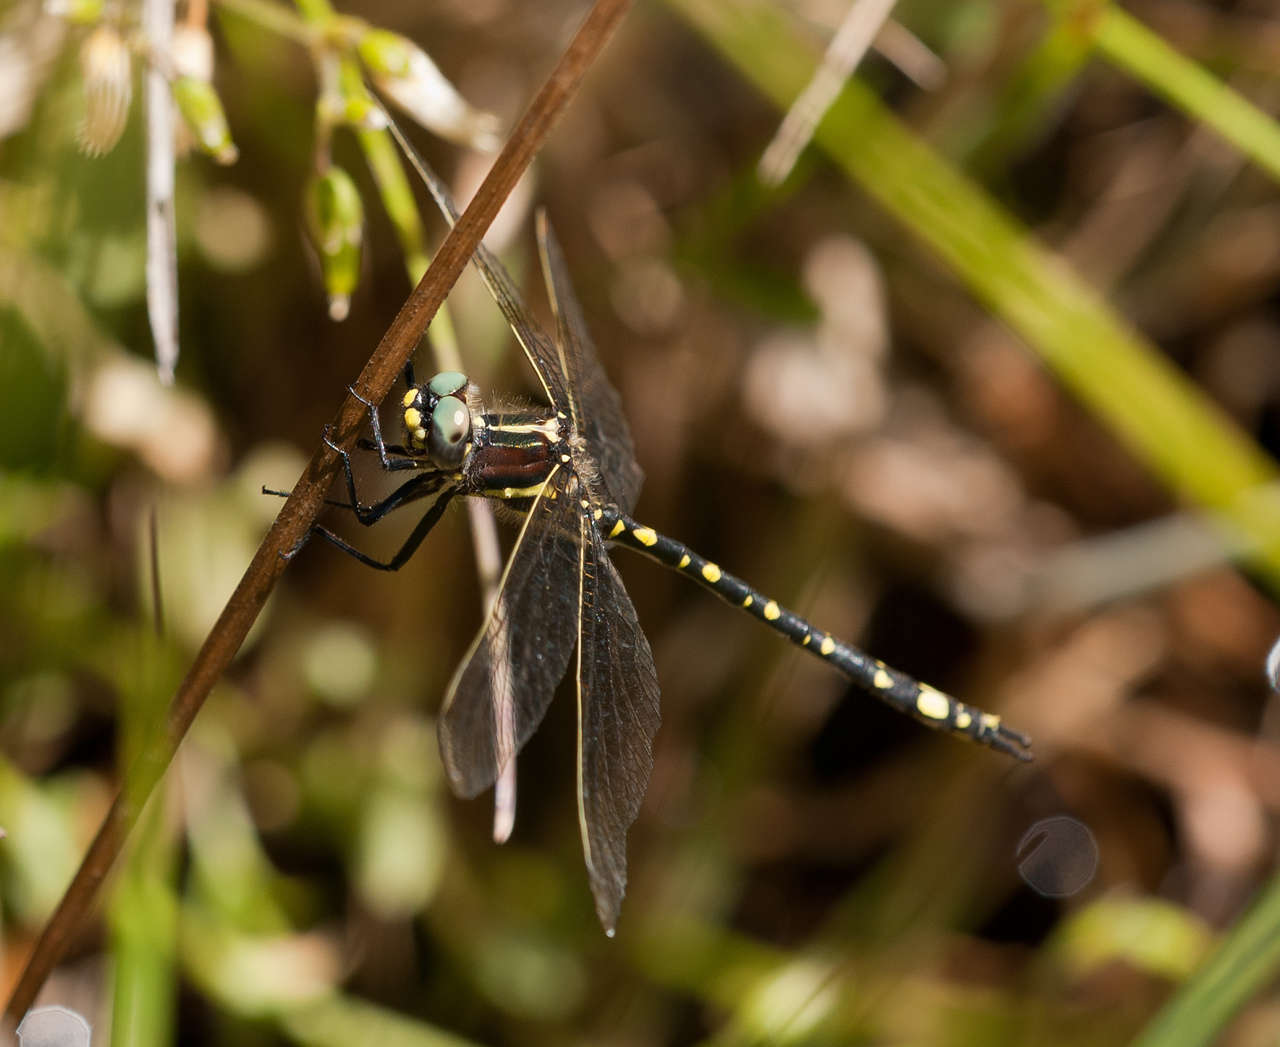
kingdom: Animalia
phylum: Arthropoda
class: Insecta
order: Odonata
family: Synthemistidae
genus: Synthemis
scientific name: Synthemis eustalacta
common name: Swamp tigertail
